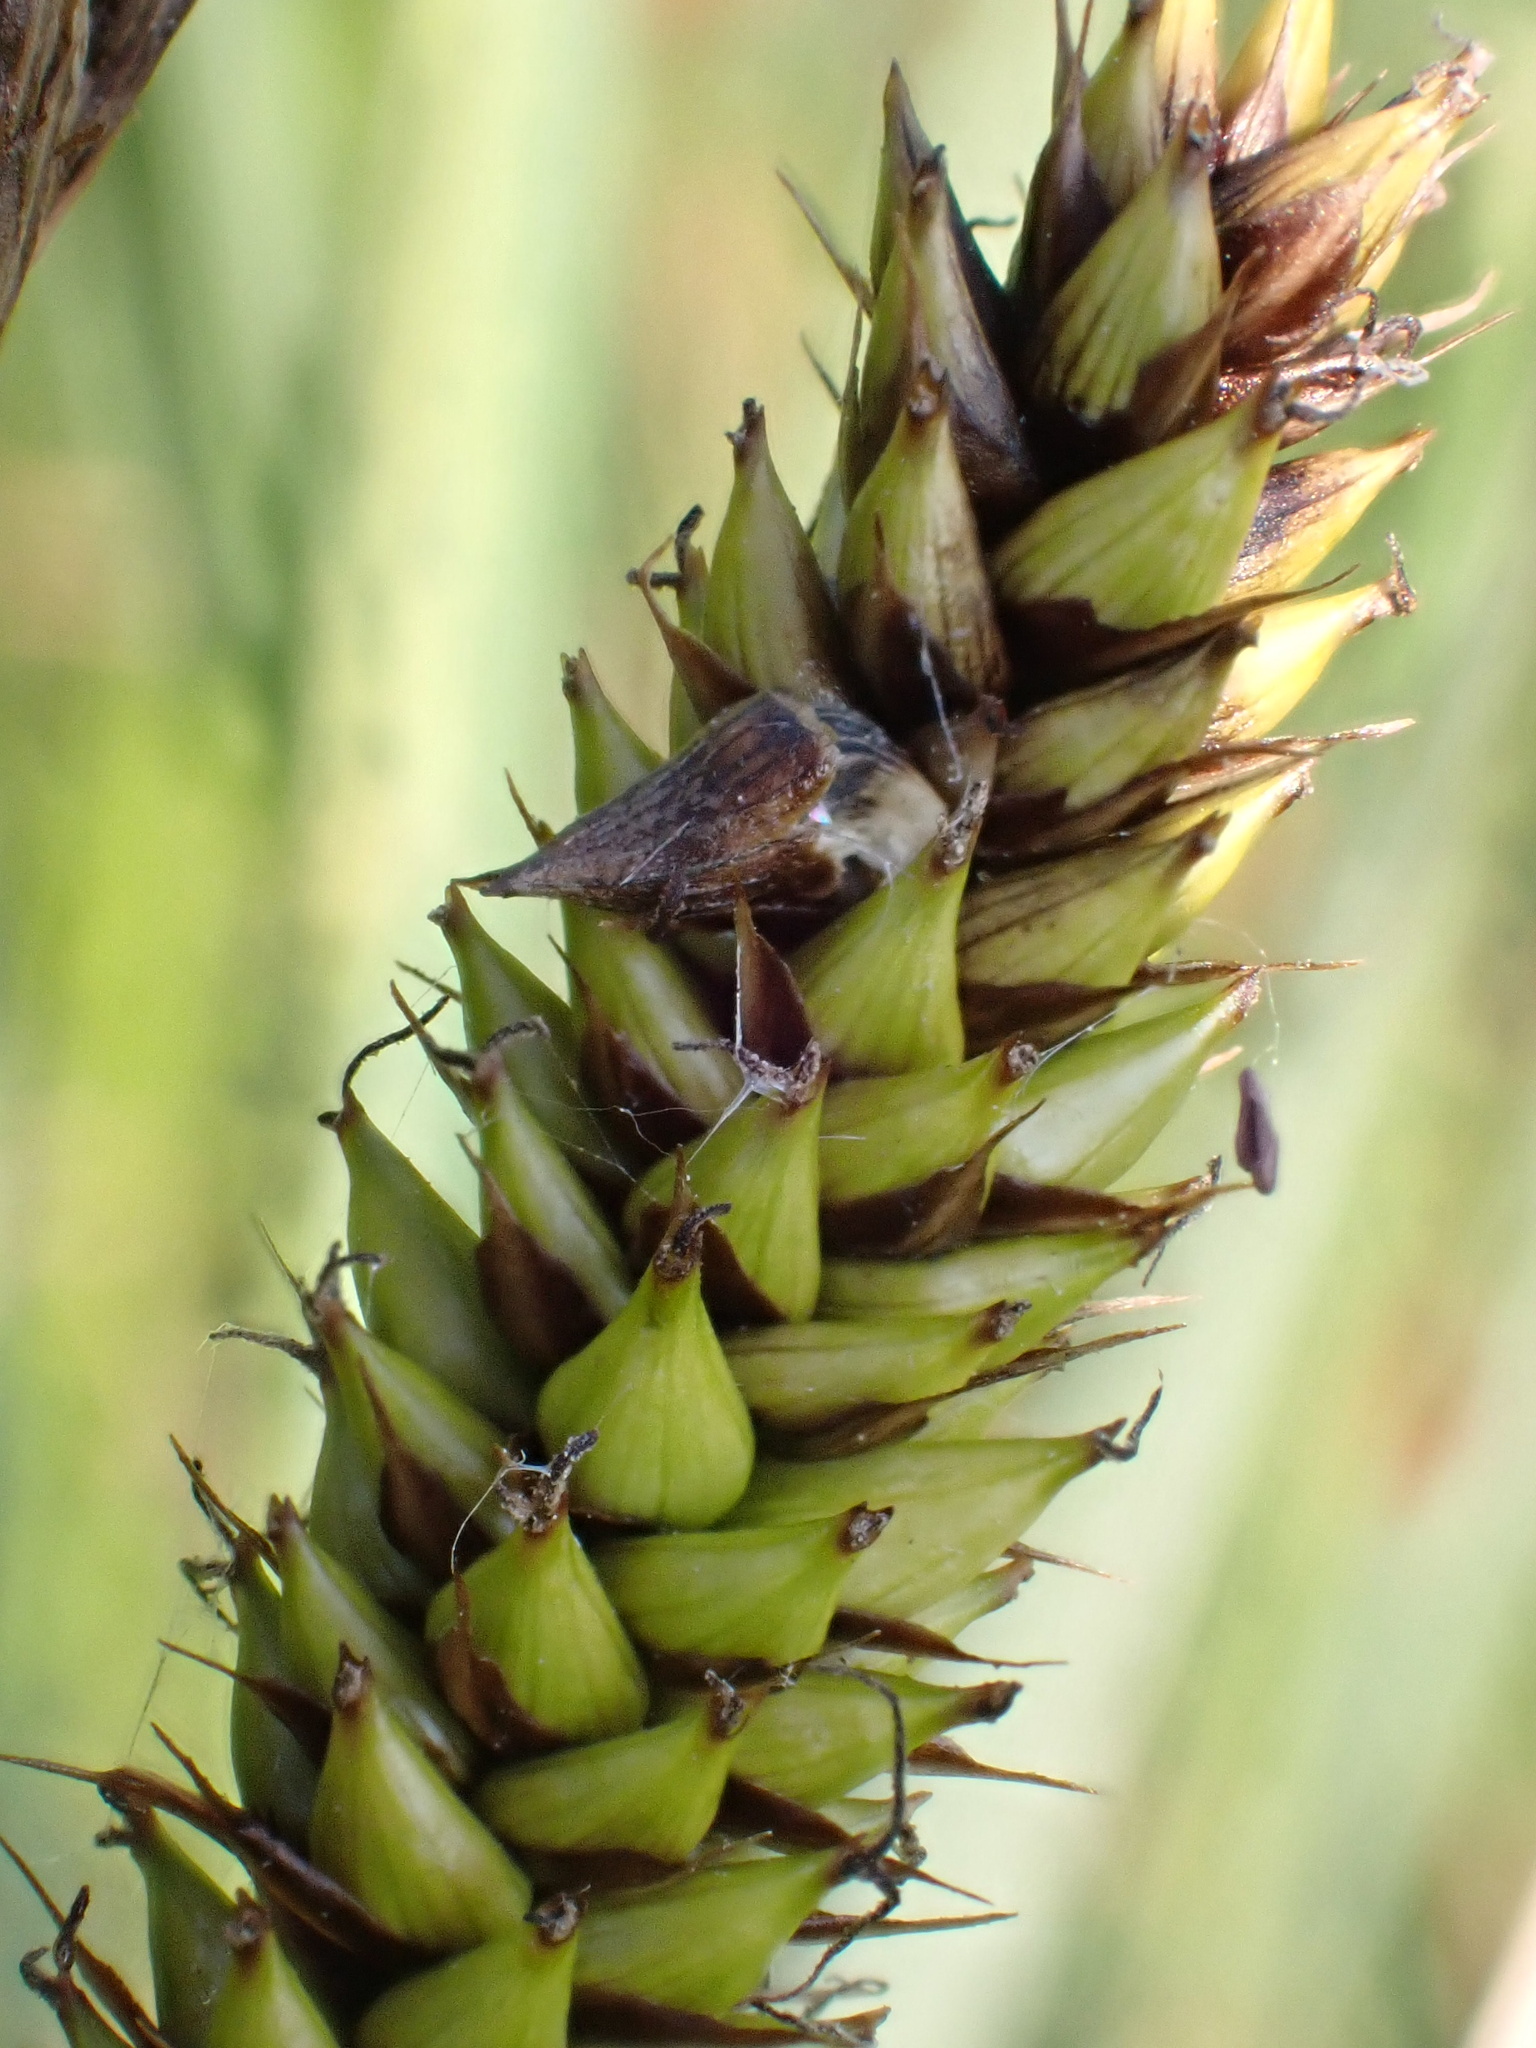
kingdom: Plantae
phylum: Tracheophyta
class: Liliopsida
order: Poales
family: Cyperaceae
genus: Carex
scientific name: Carex riparia
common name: Greater pond-sedge
